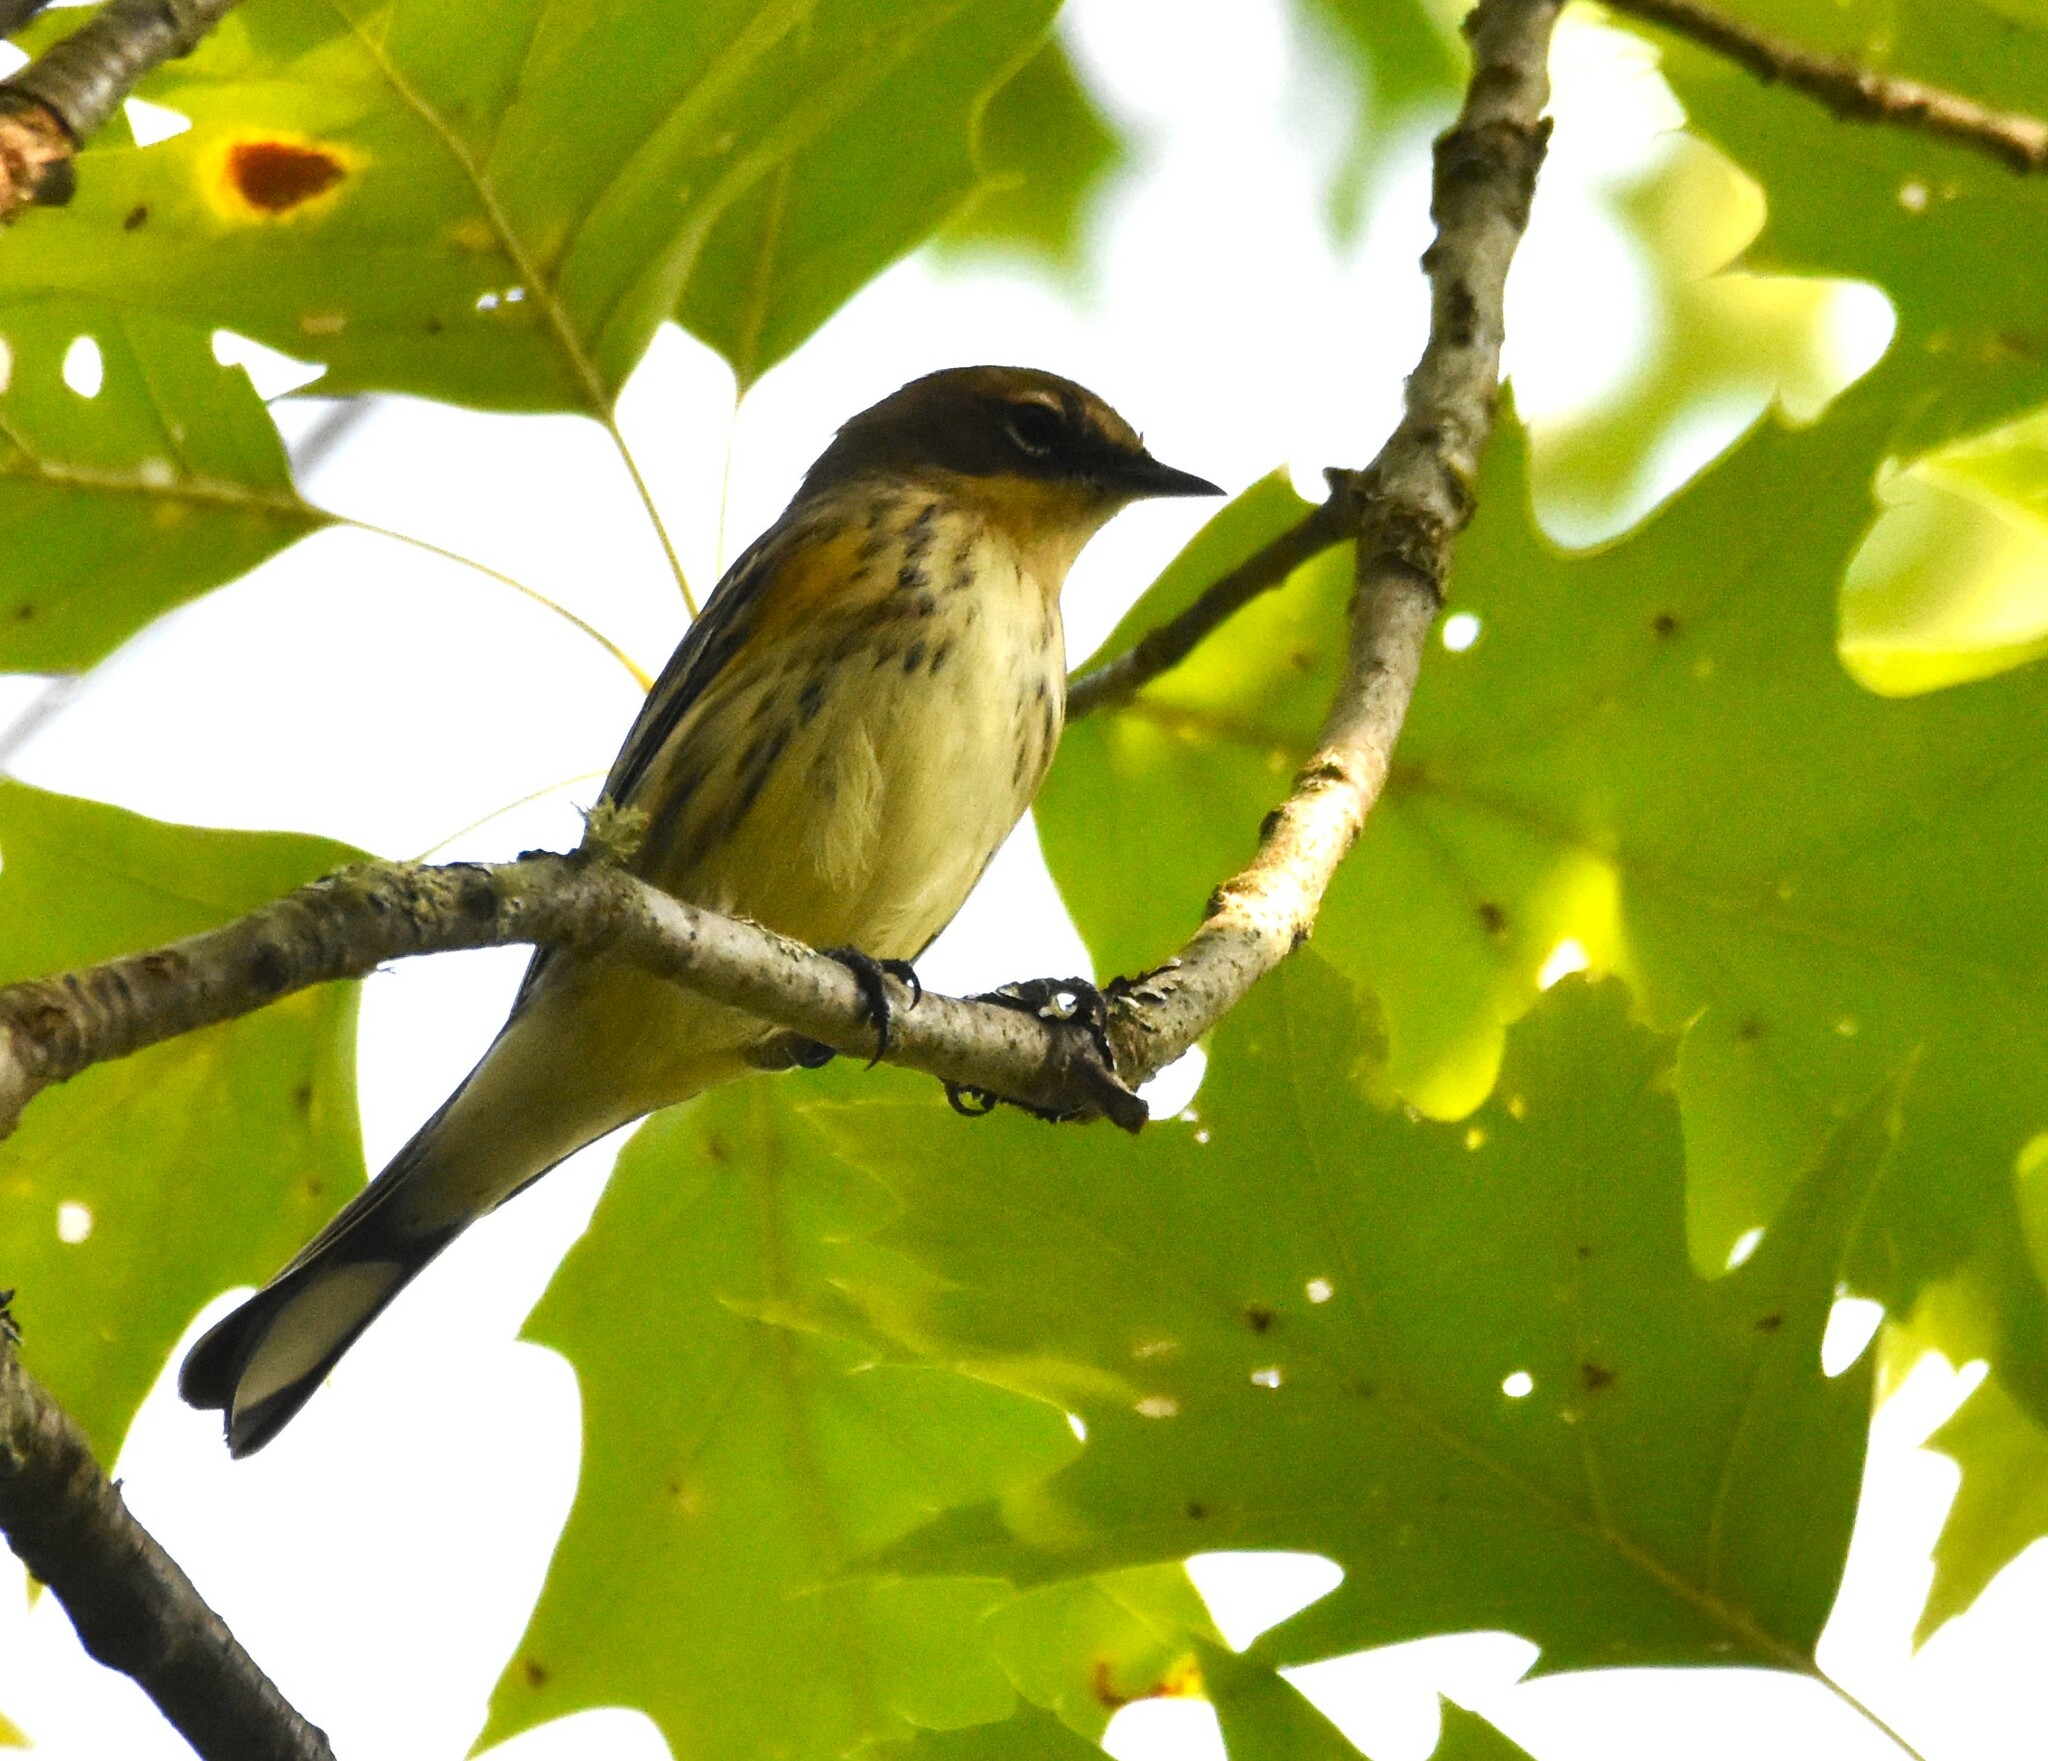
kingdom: Animalia
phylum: Chordata
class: Aves
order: Passeriformes
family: Parulidae
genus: Setophaga
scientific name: Setophaga coronata
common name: Myrtle warbler
